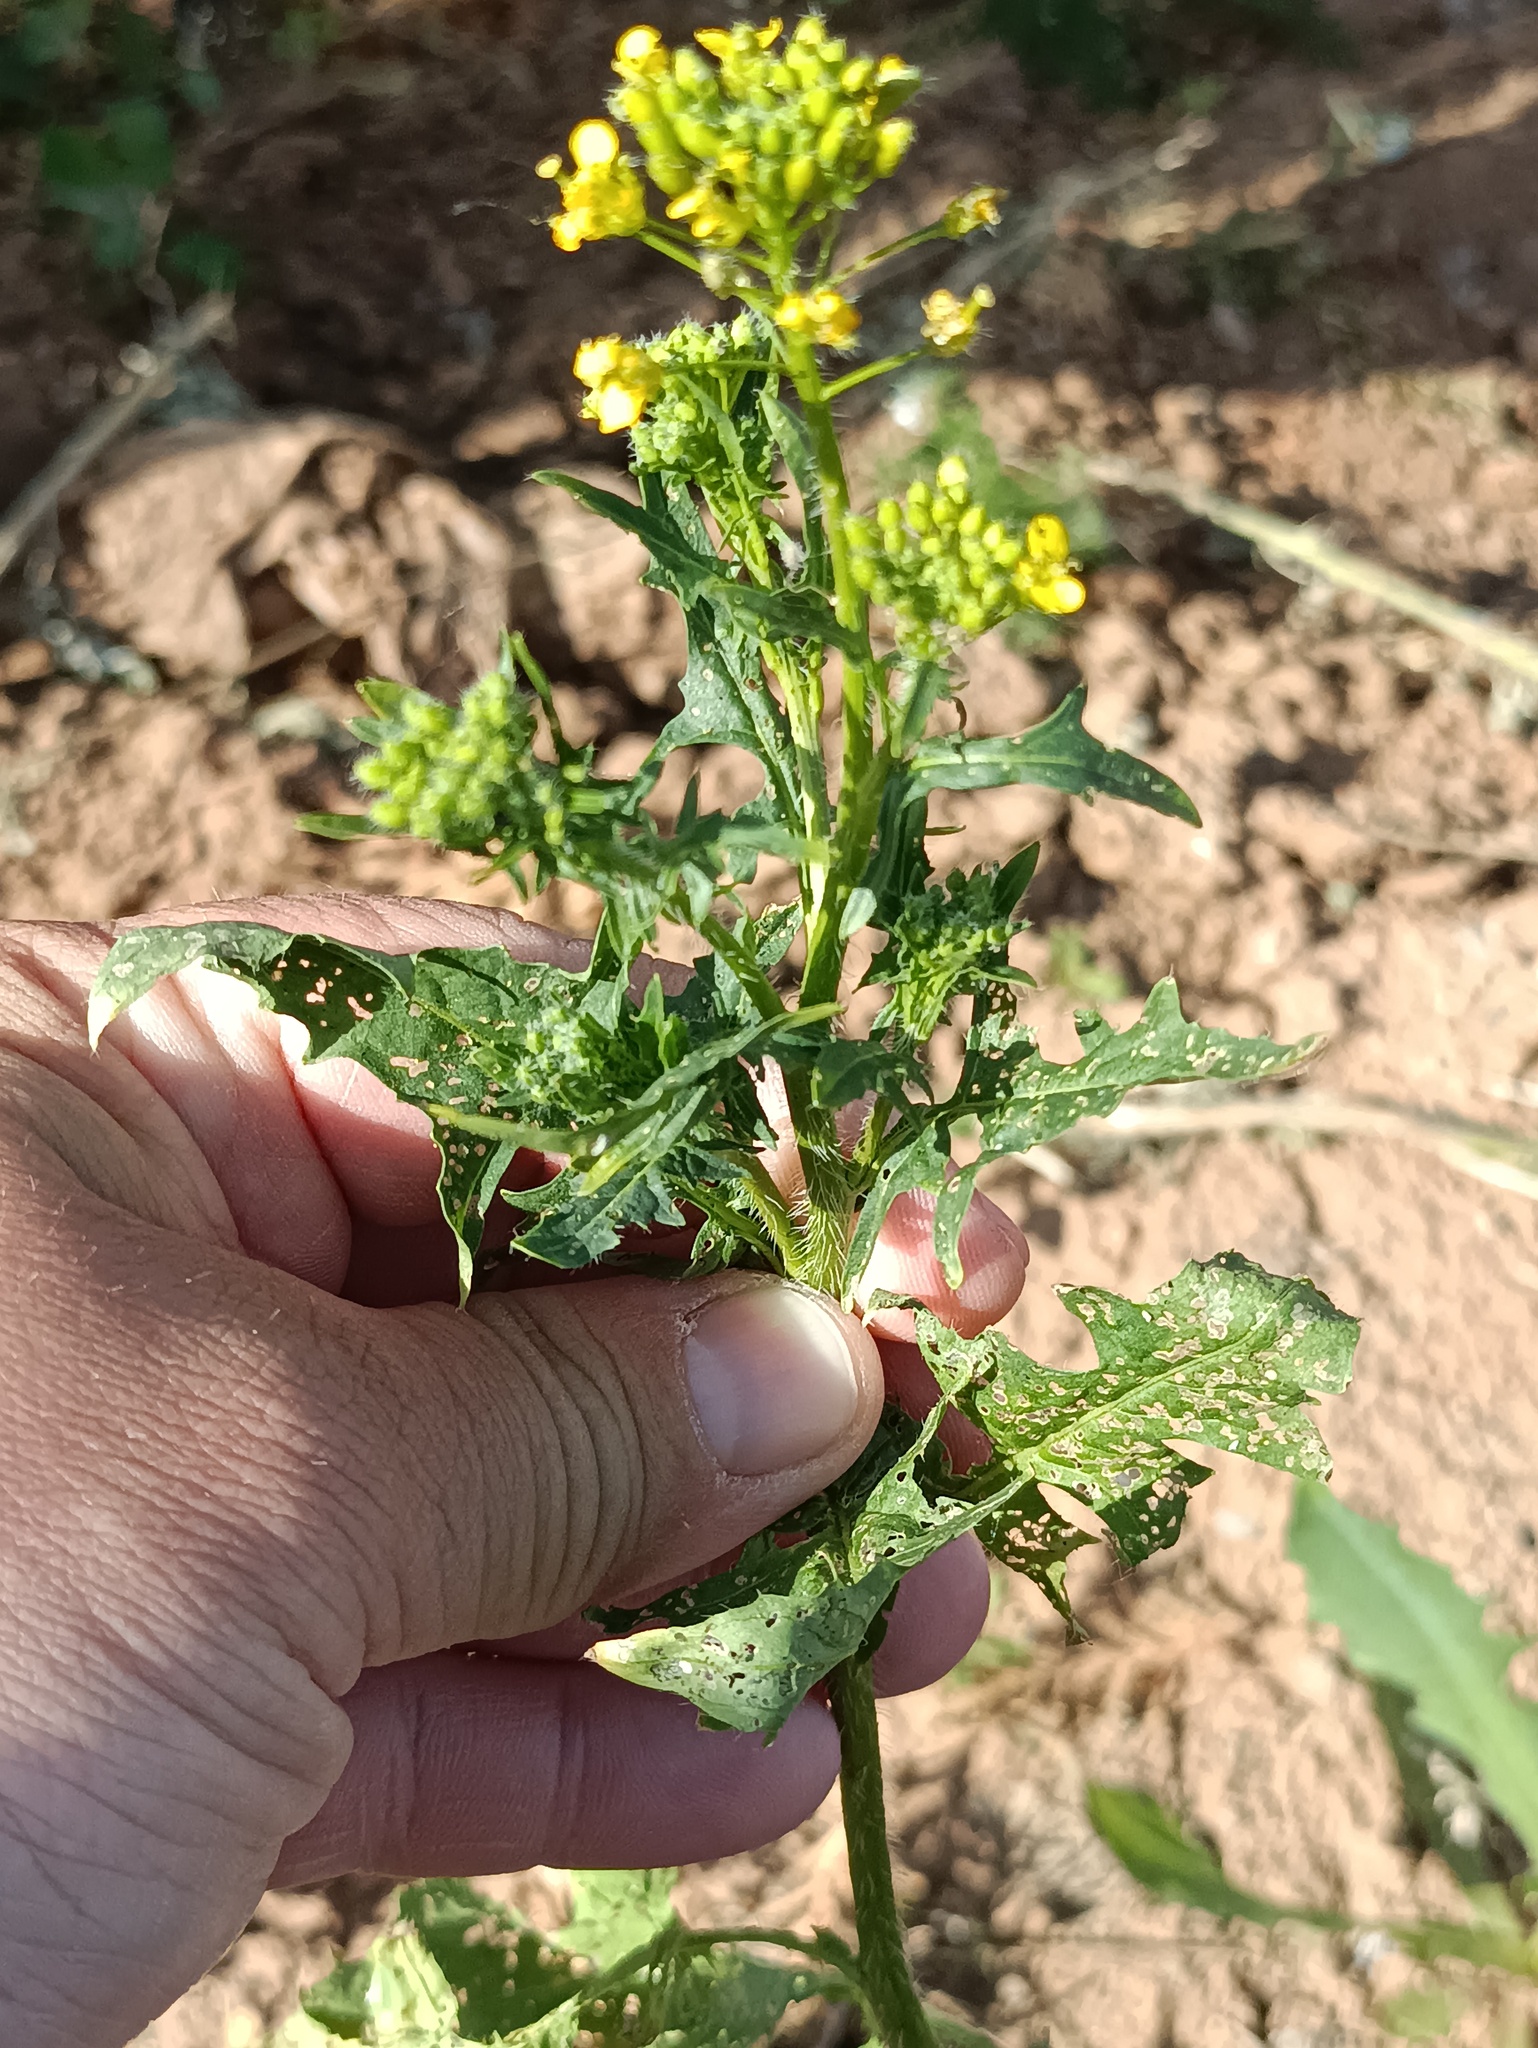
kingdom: Plantae
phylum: Tracheophyta
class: Magnoliopsida
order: Brassicales
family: Brassicaceae
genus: Sisymbrium
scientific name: Sisymbrium loeselii
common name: False london-rocket
